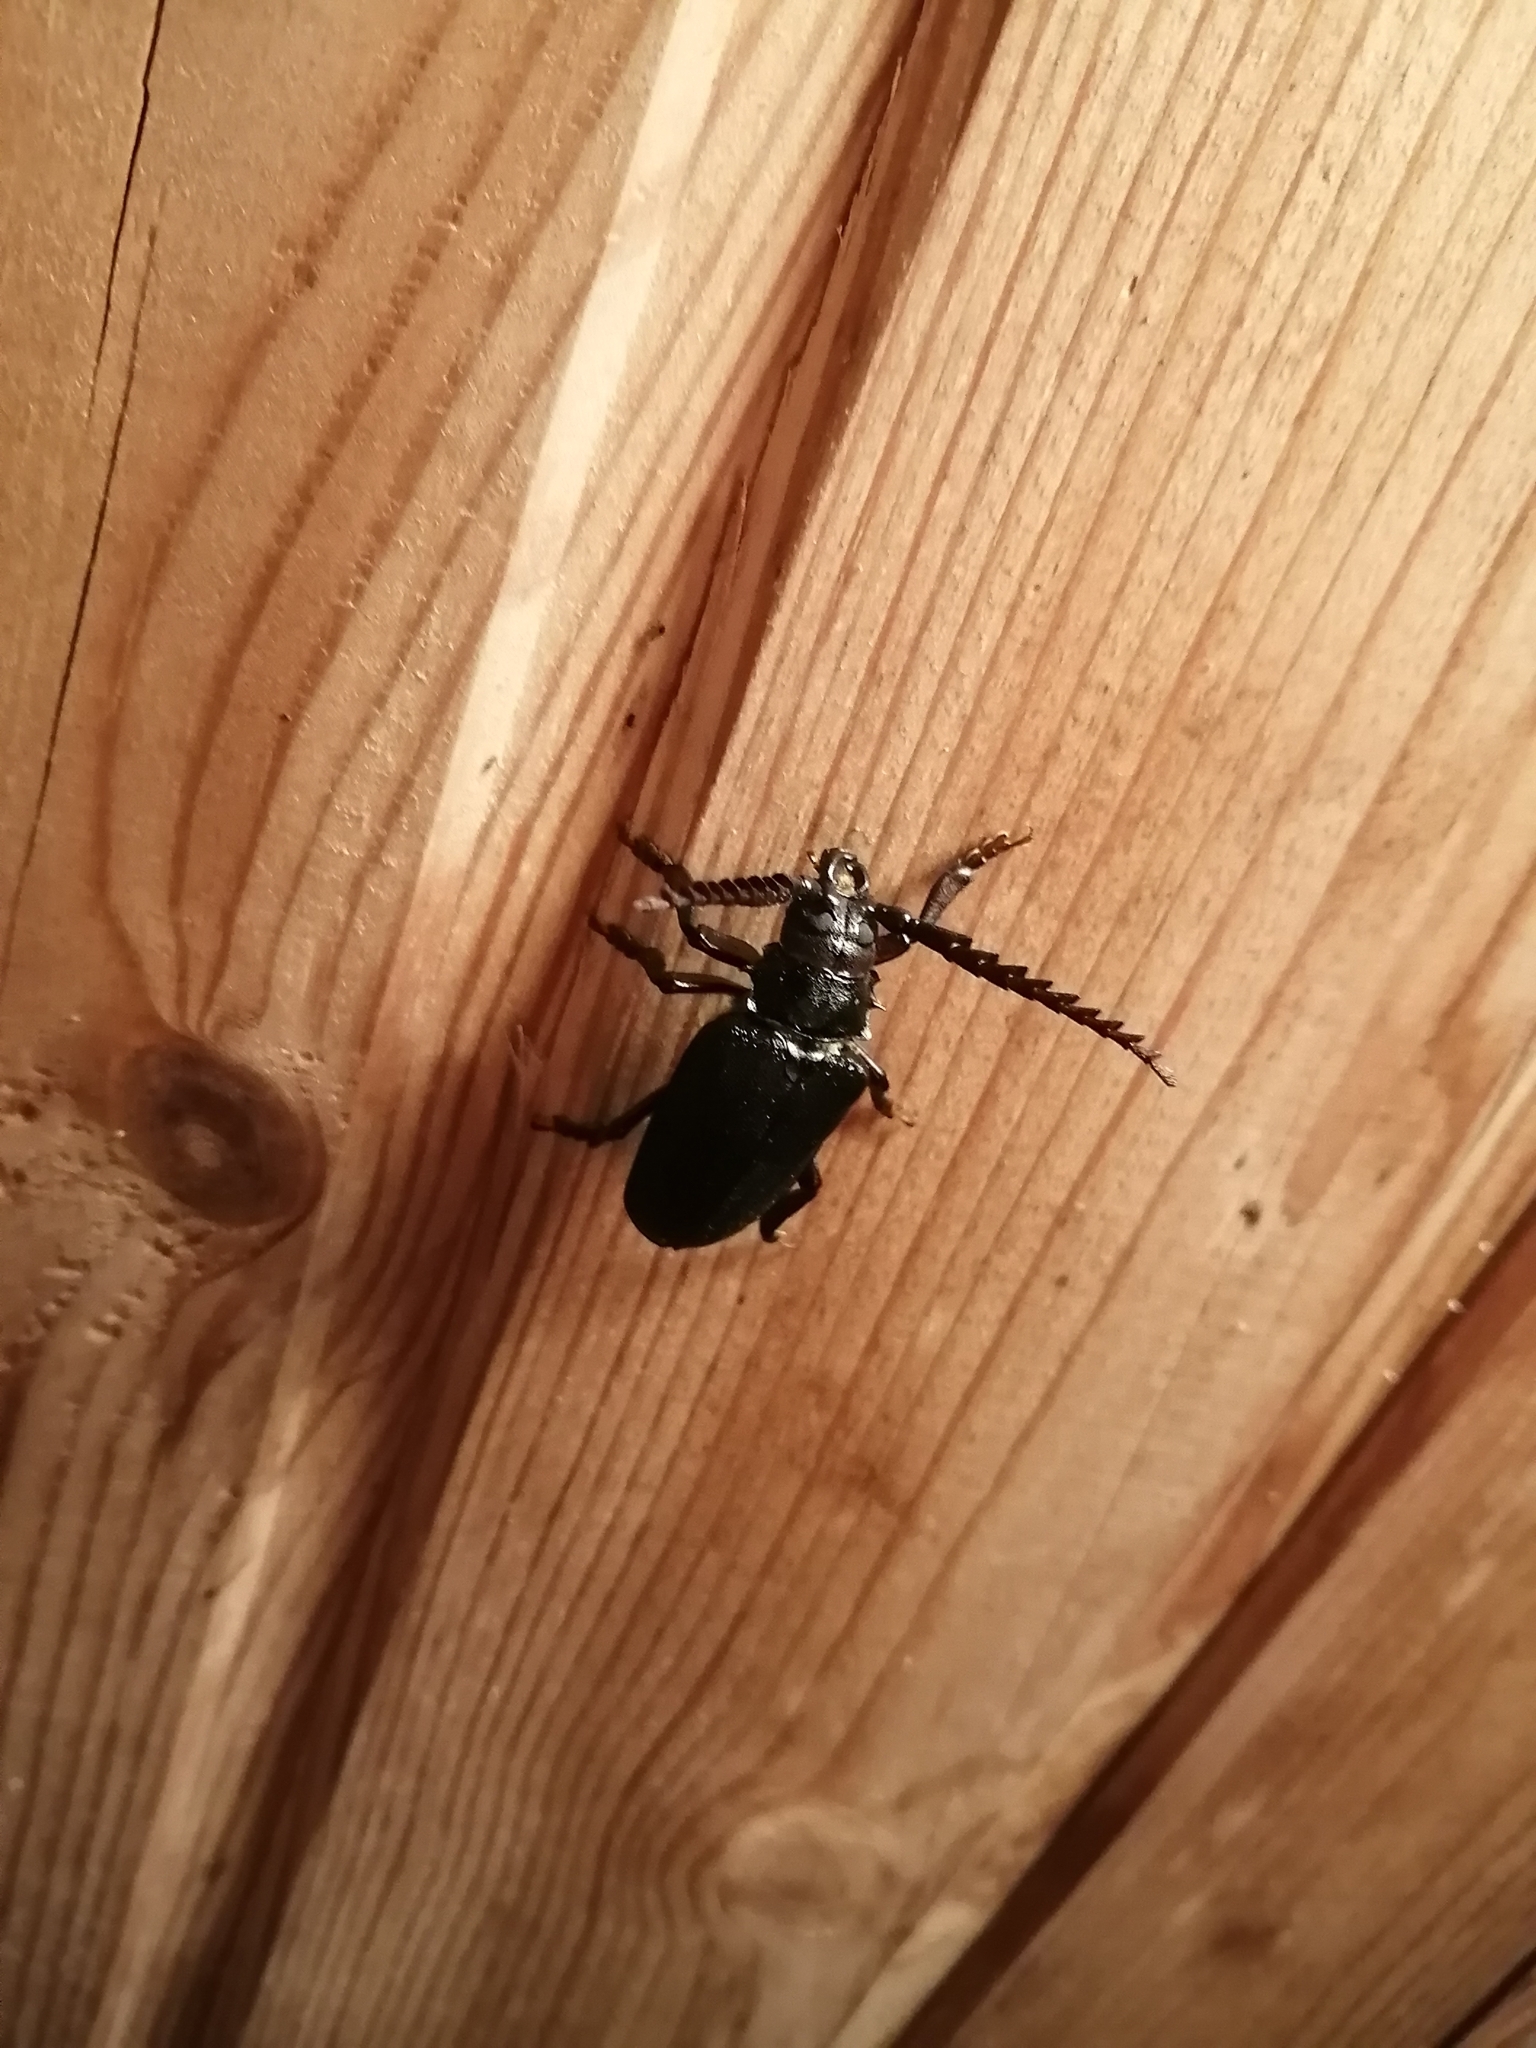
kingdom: Animalia
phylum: Arthropoda
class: Insecta
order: Coleoptera
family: Cerambycidae
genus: Prionus
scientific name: Prionus coriarius
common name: Tanner beetle
